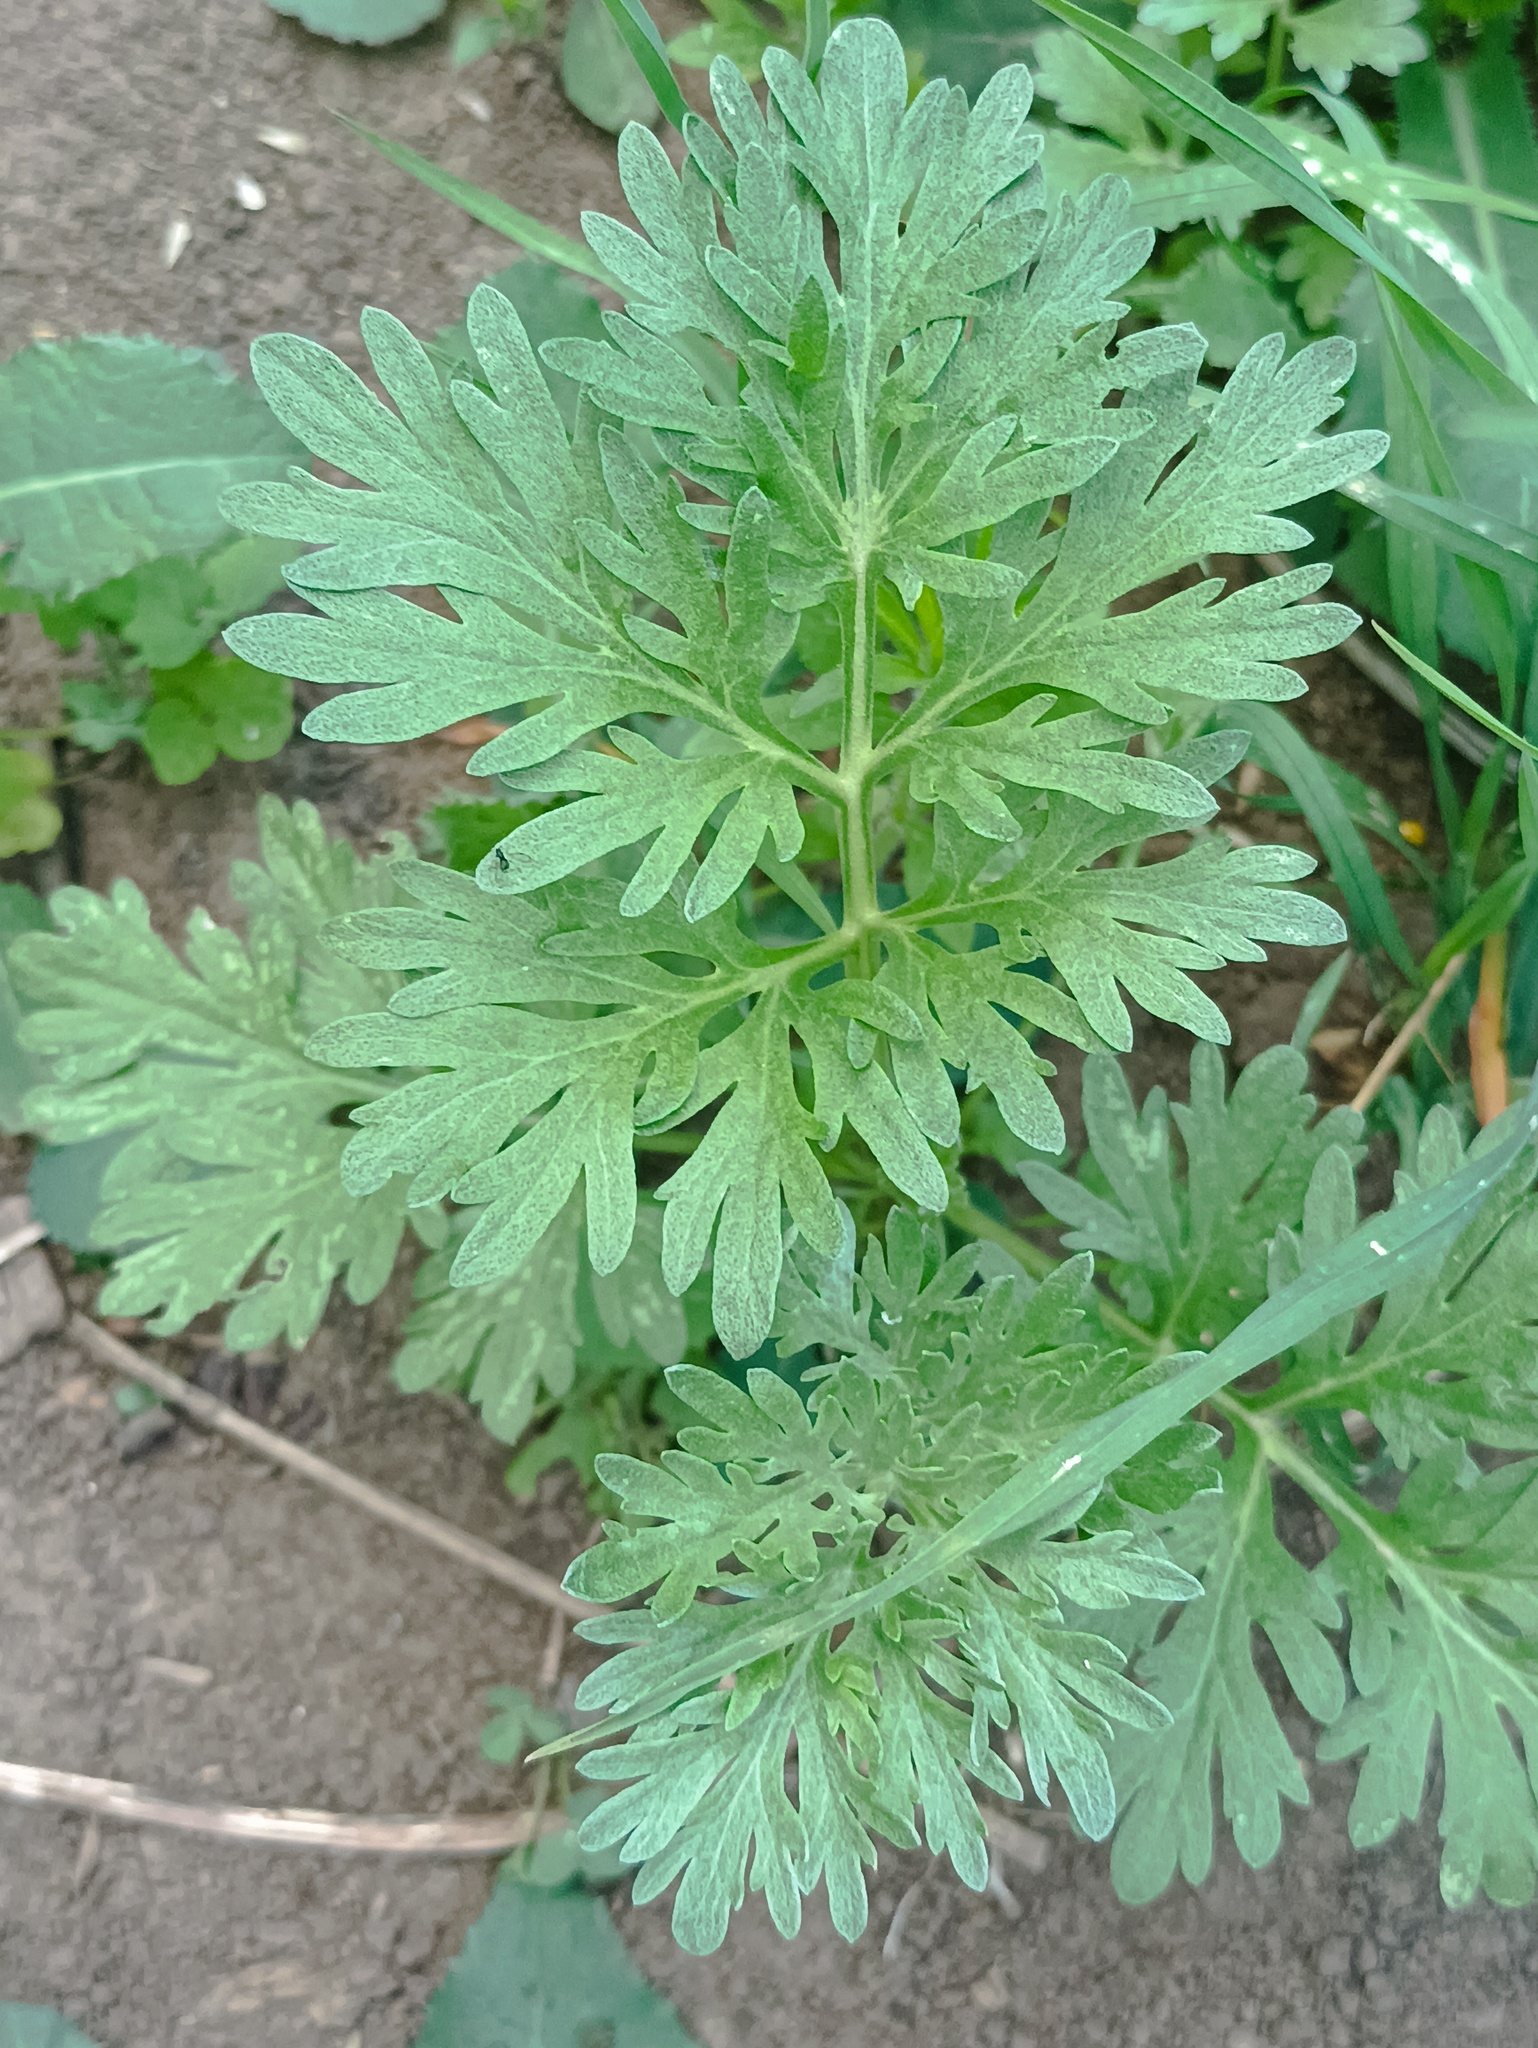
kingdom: Plantae
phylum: Tracheophyta
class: Magnoliopsida
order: Asterales
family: Asteraceae
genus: Artemisia
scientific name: Artemisia absinthium
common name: Wormwood
